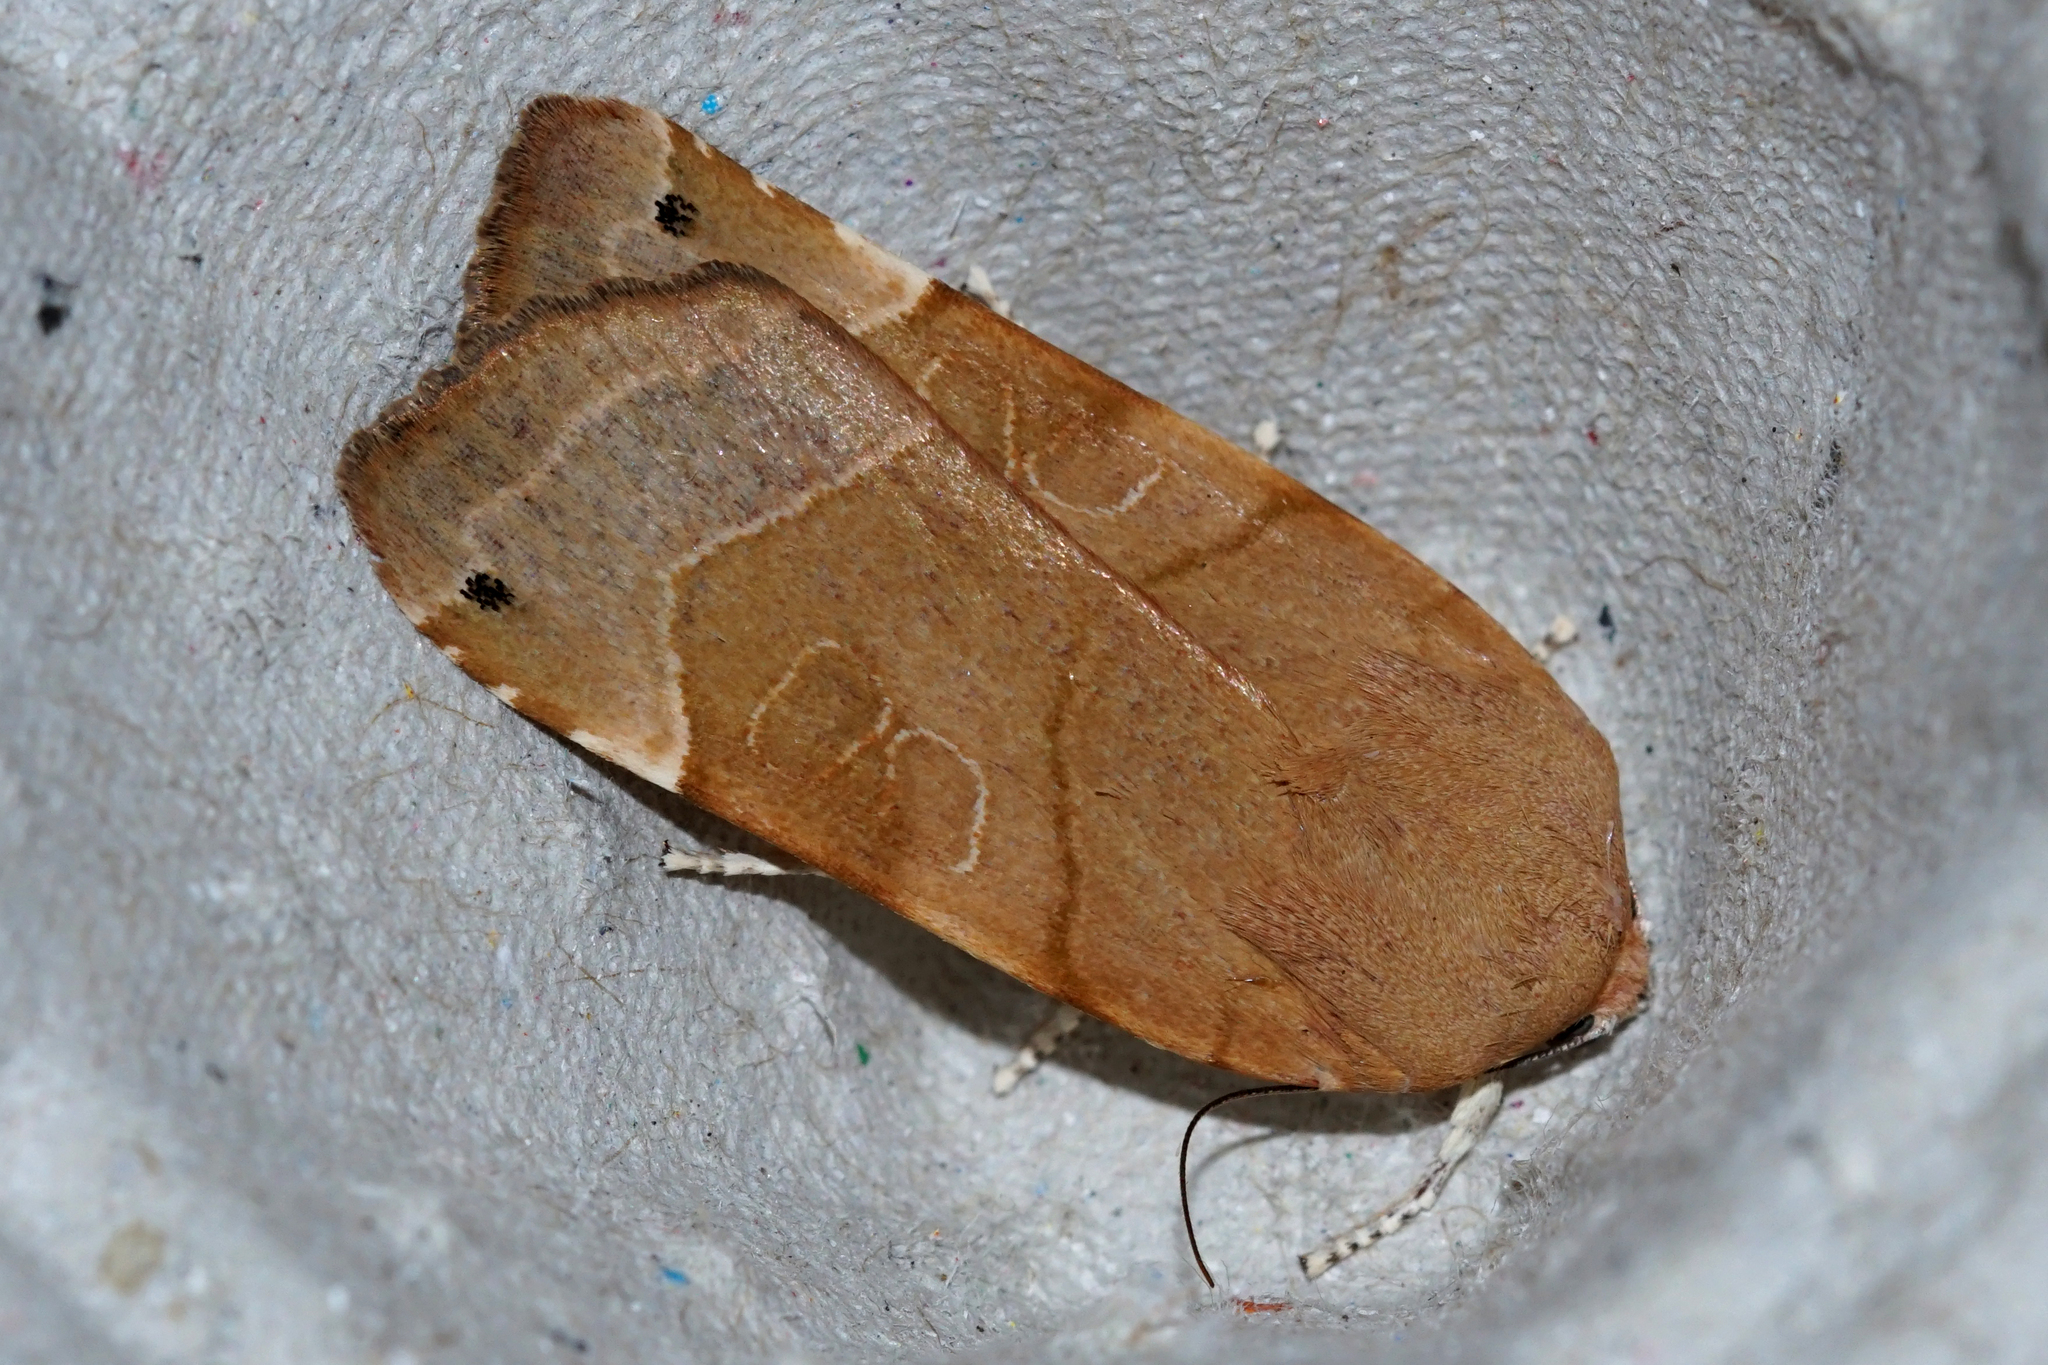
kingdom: Animalia
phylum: Arthropoda
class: Insecta
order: Lepidoptera
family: Noctuidae
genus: Noctua
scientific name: Noctua fimbriata
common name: Broad-bordered yellow underwing
